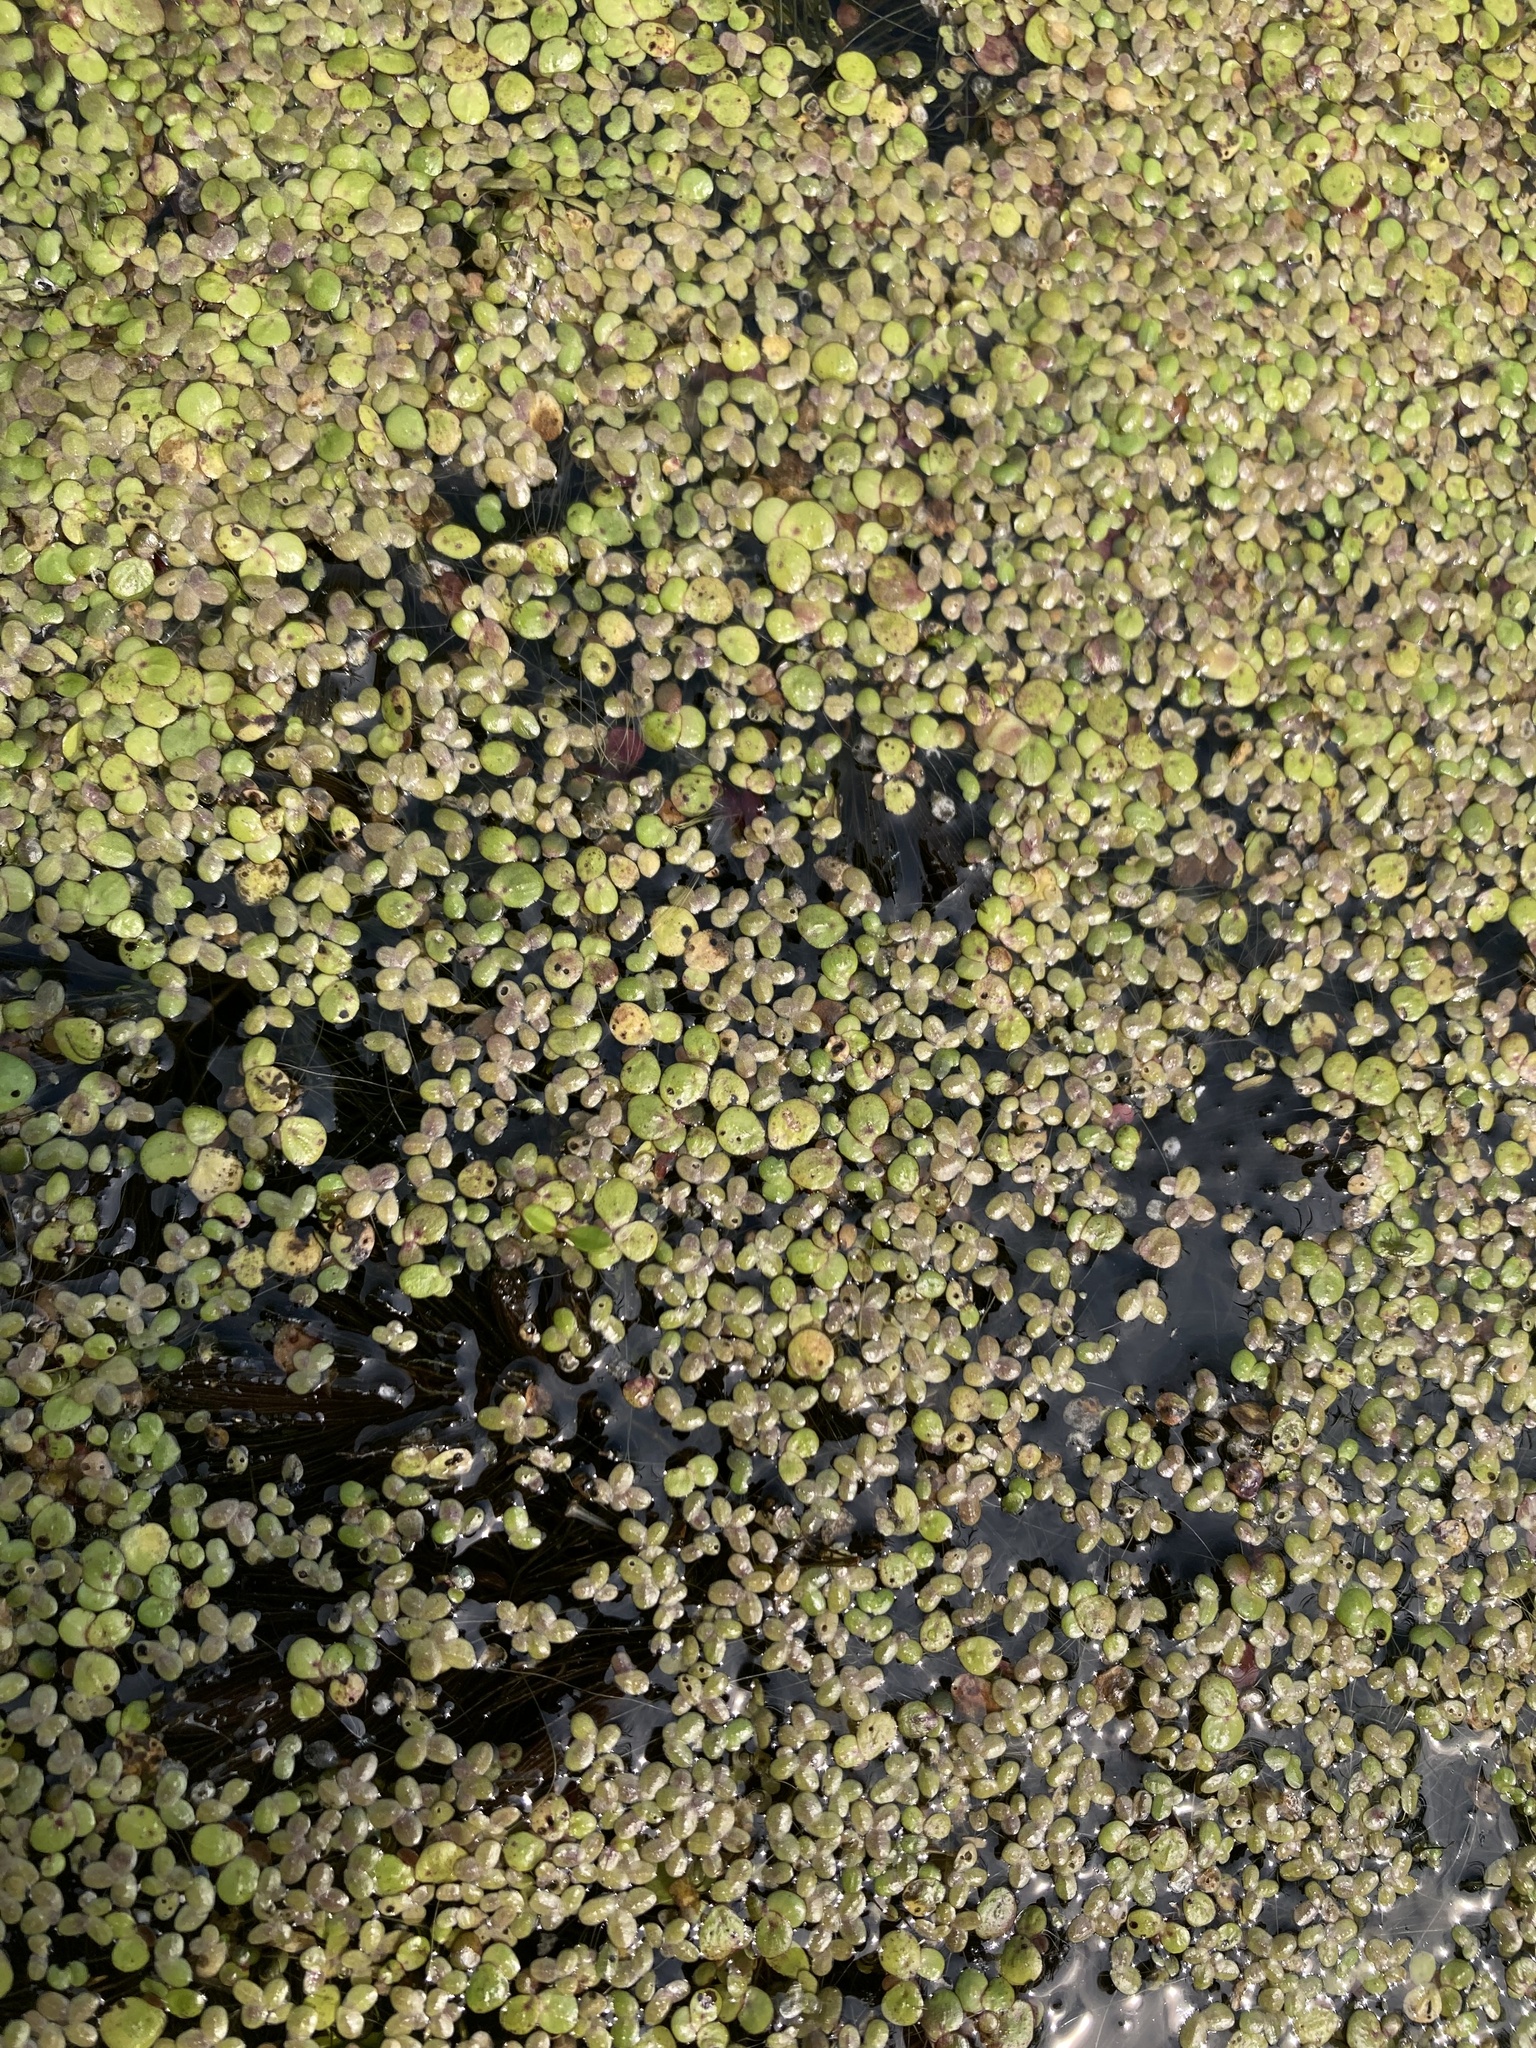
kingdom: Plantae
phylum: Tracheophyta
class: Liliopsida
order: Alismatales
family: Araceae
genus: Lemna
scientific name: Lemna minor
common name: Common duckweed
